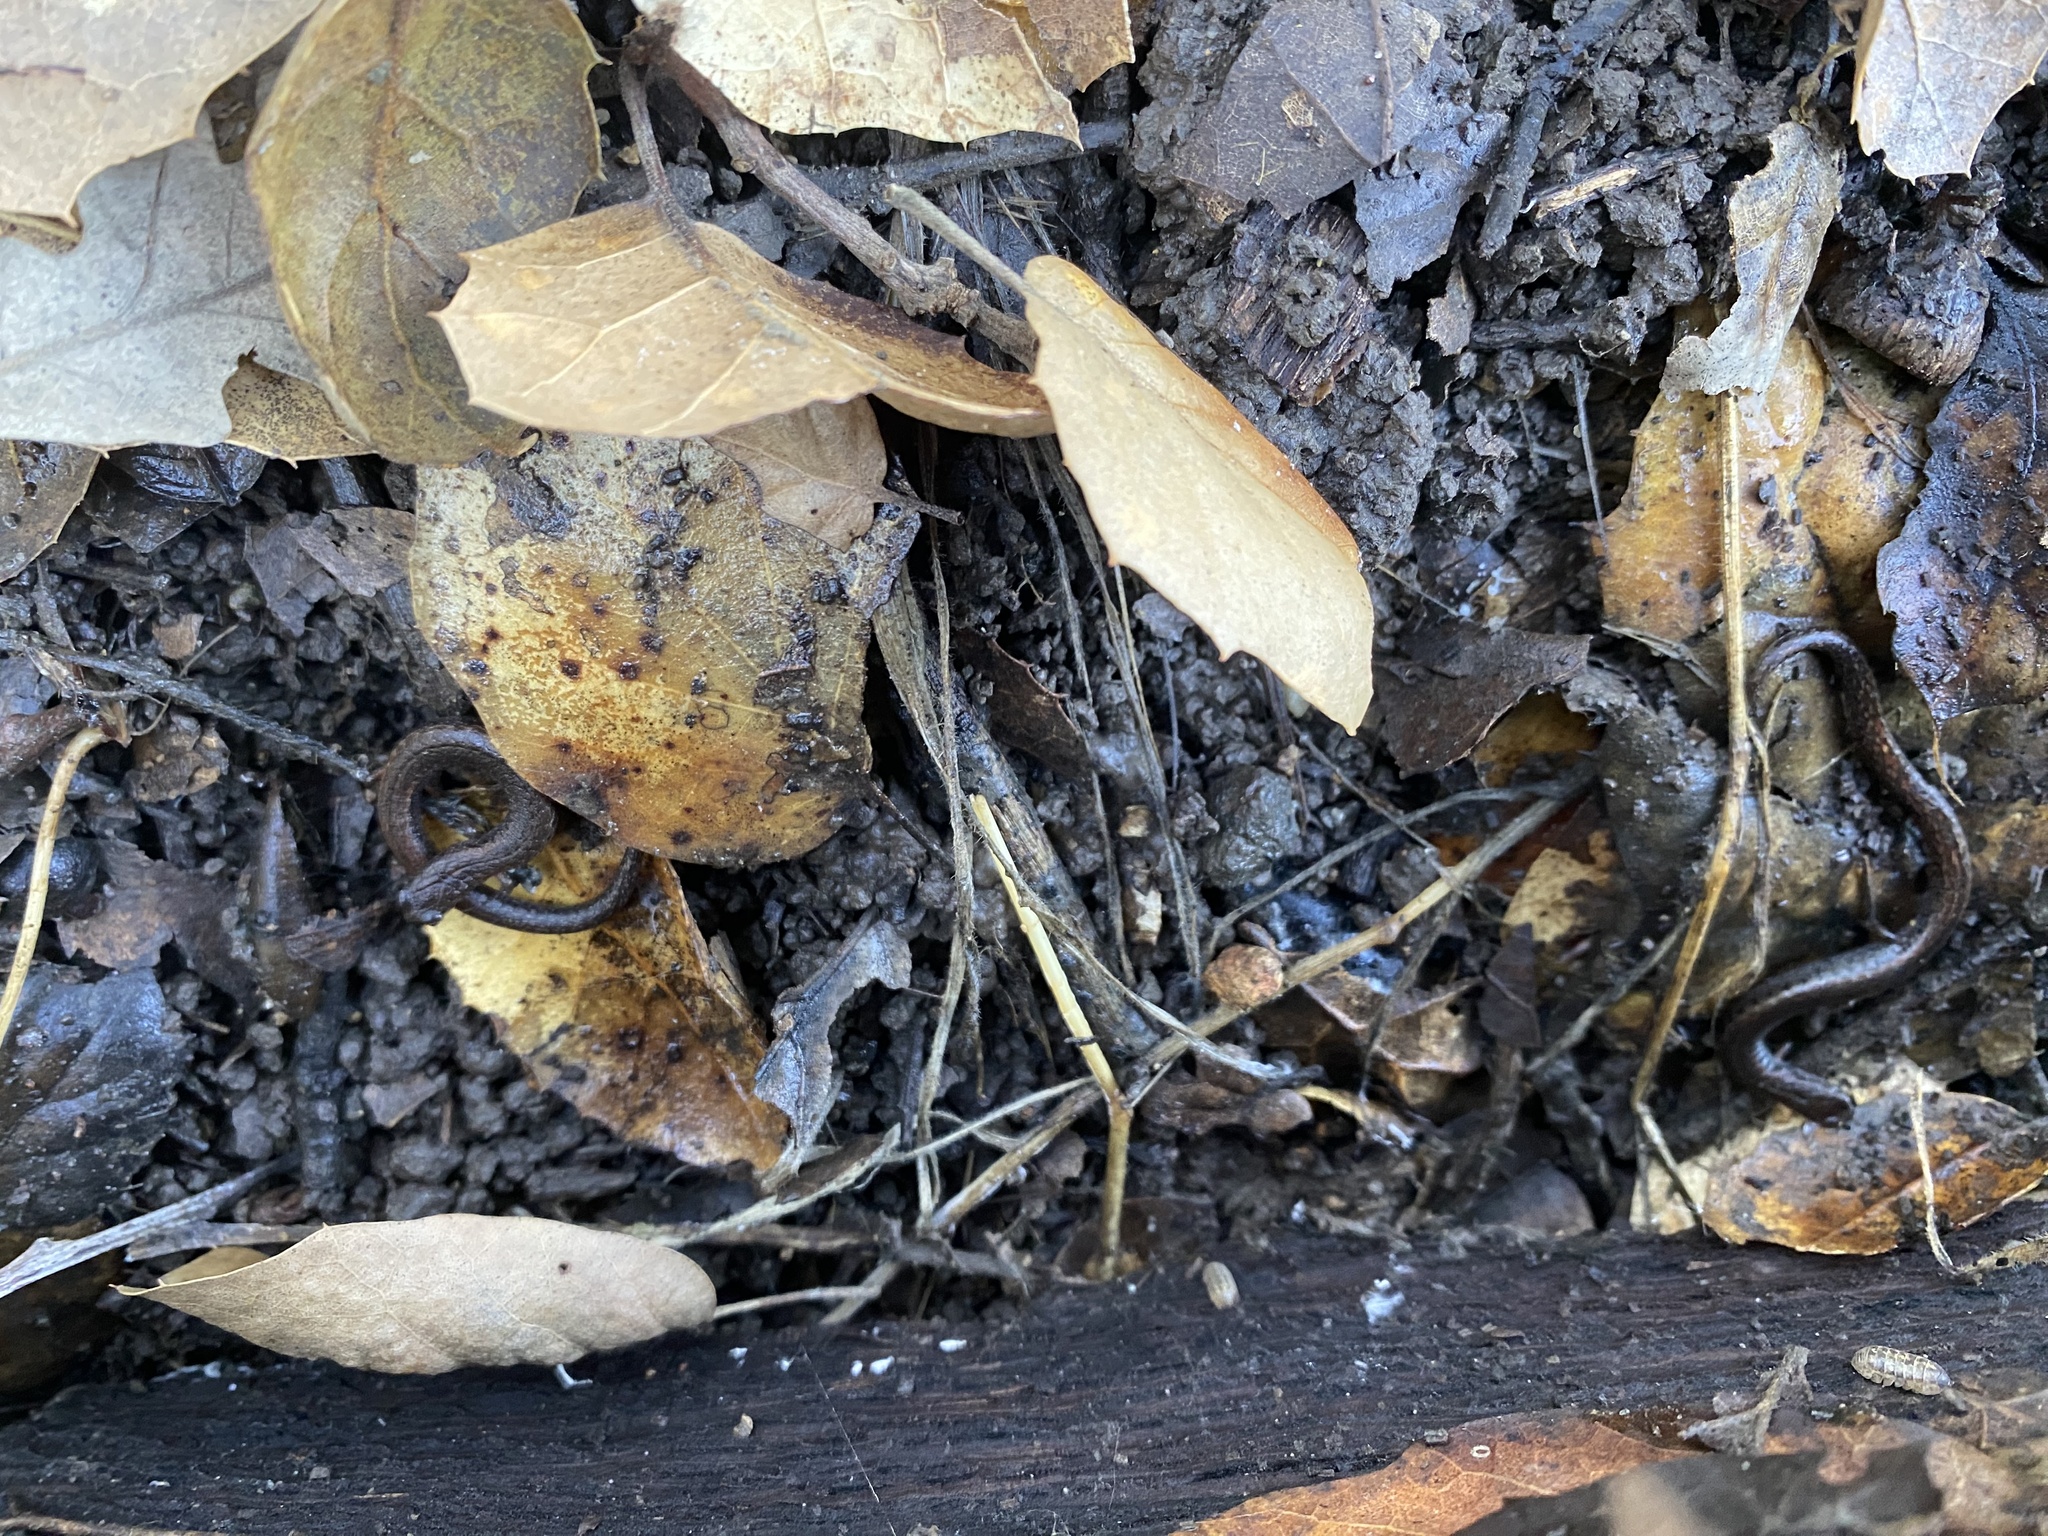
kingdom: Animalia
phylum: Chordata
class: Amphibia
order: Caudata
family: Plethodontidae
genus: Batrachoseps
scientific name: Batrachoseps attenuatus
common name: California slender salamander
